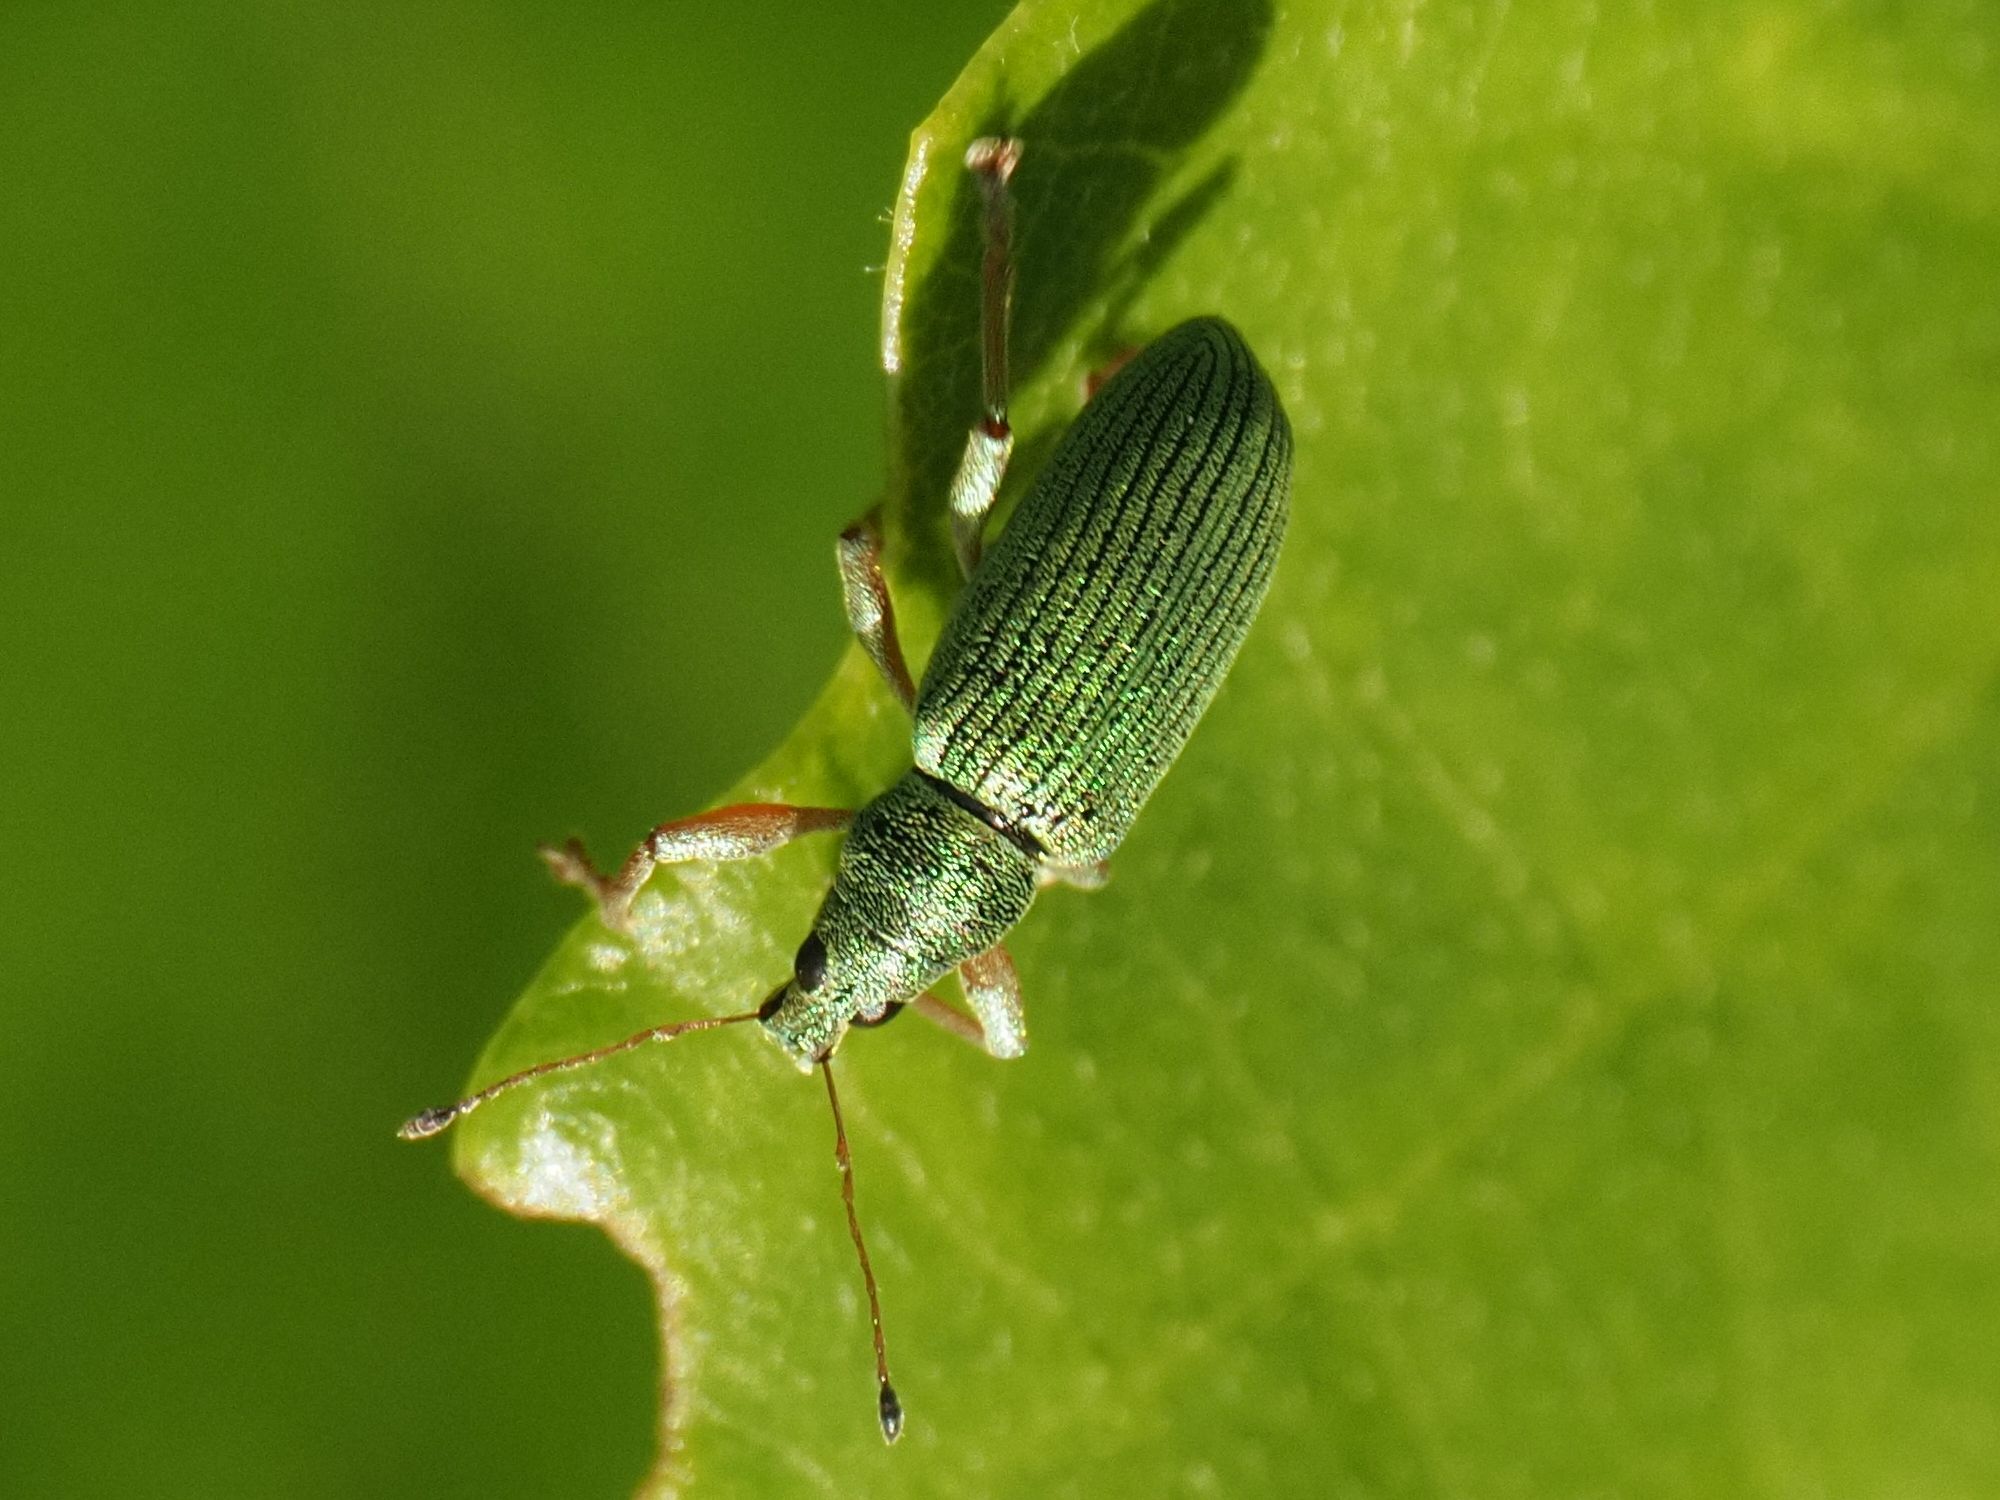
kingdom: Animalia
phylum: Arthropoda
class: Insecta
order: Coleoptera
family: Curculionidae
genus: Polydrusus
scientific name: Polydrusus formosus
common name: Weevil
